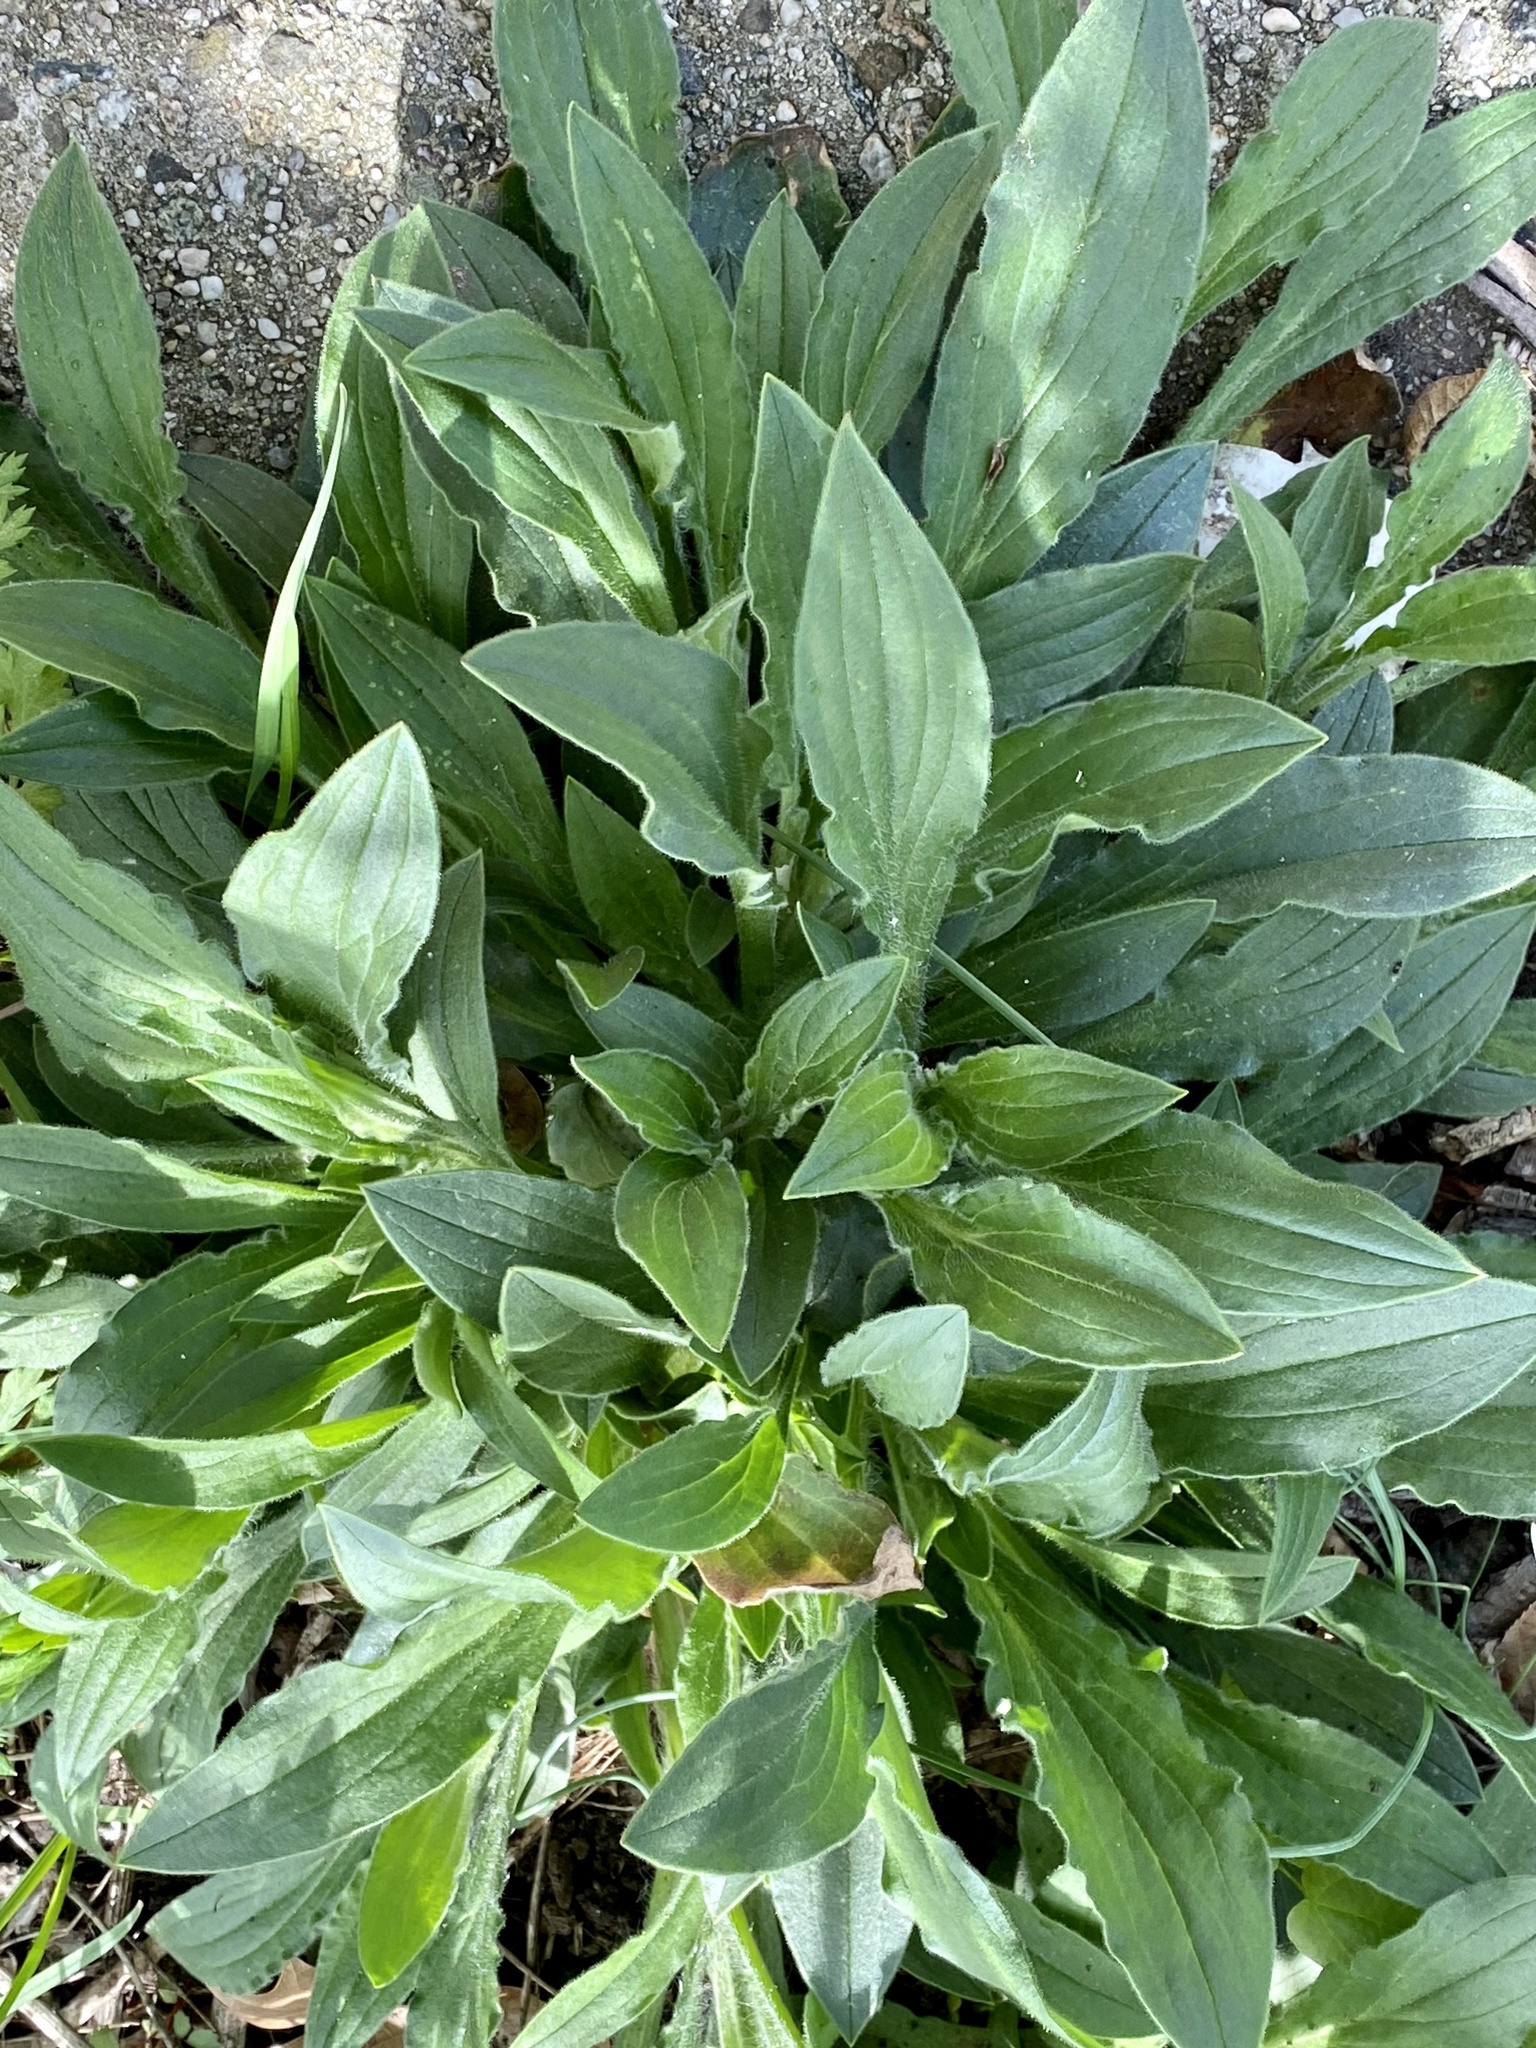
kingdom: Plantae
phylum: Tracheophyta
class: Magnoliopsida
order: Caryophyllales
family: Caryophyllaceae
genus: Silene
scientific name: Silene latifolia
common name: White campion
